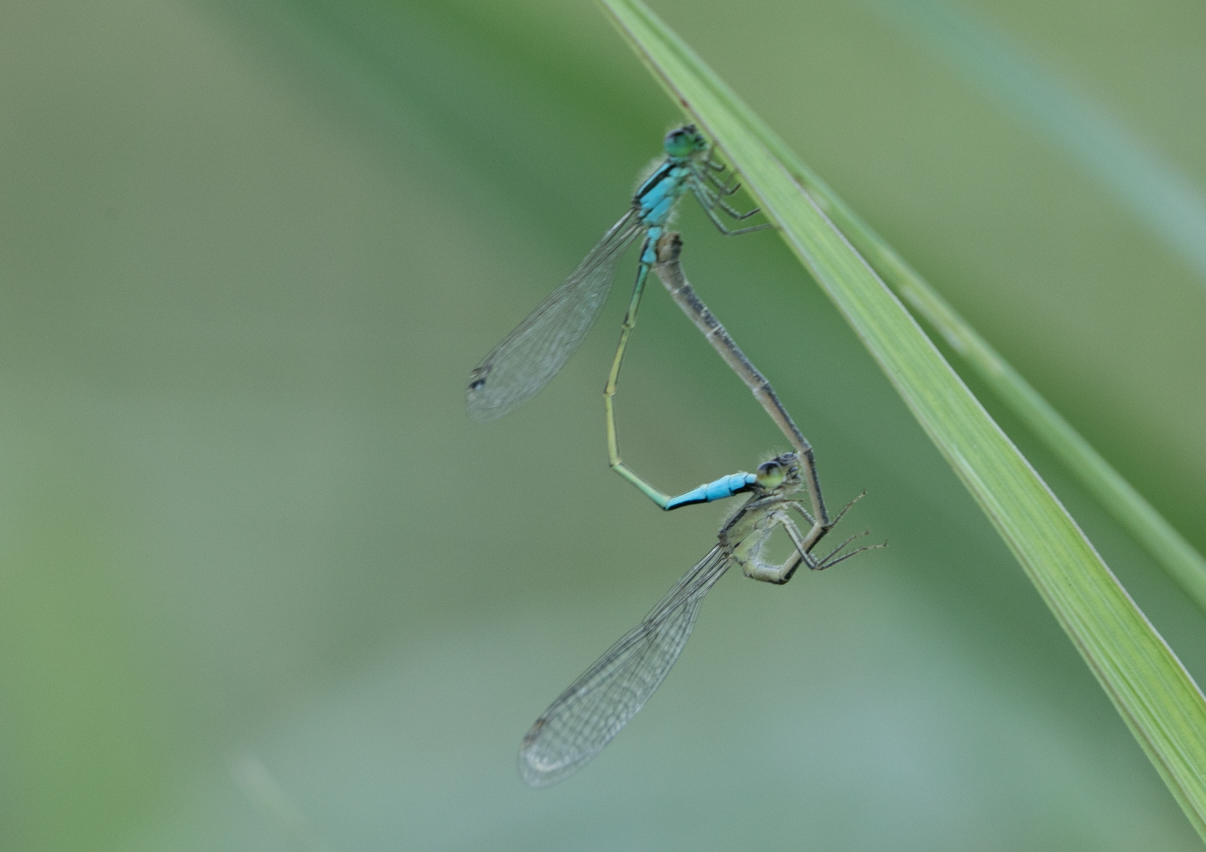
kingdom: Animalia
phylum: Arthropoda
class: Insecta
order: Odonata
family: Coenagrionidae
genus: Ischnura
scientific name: Ischnura elegans
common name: Blue-tailed damselfly
